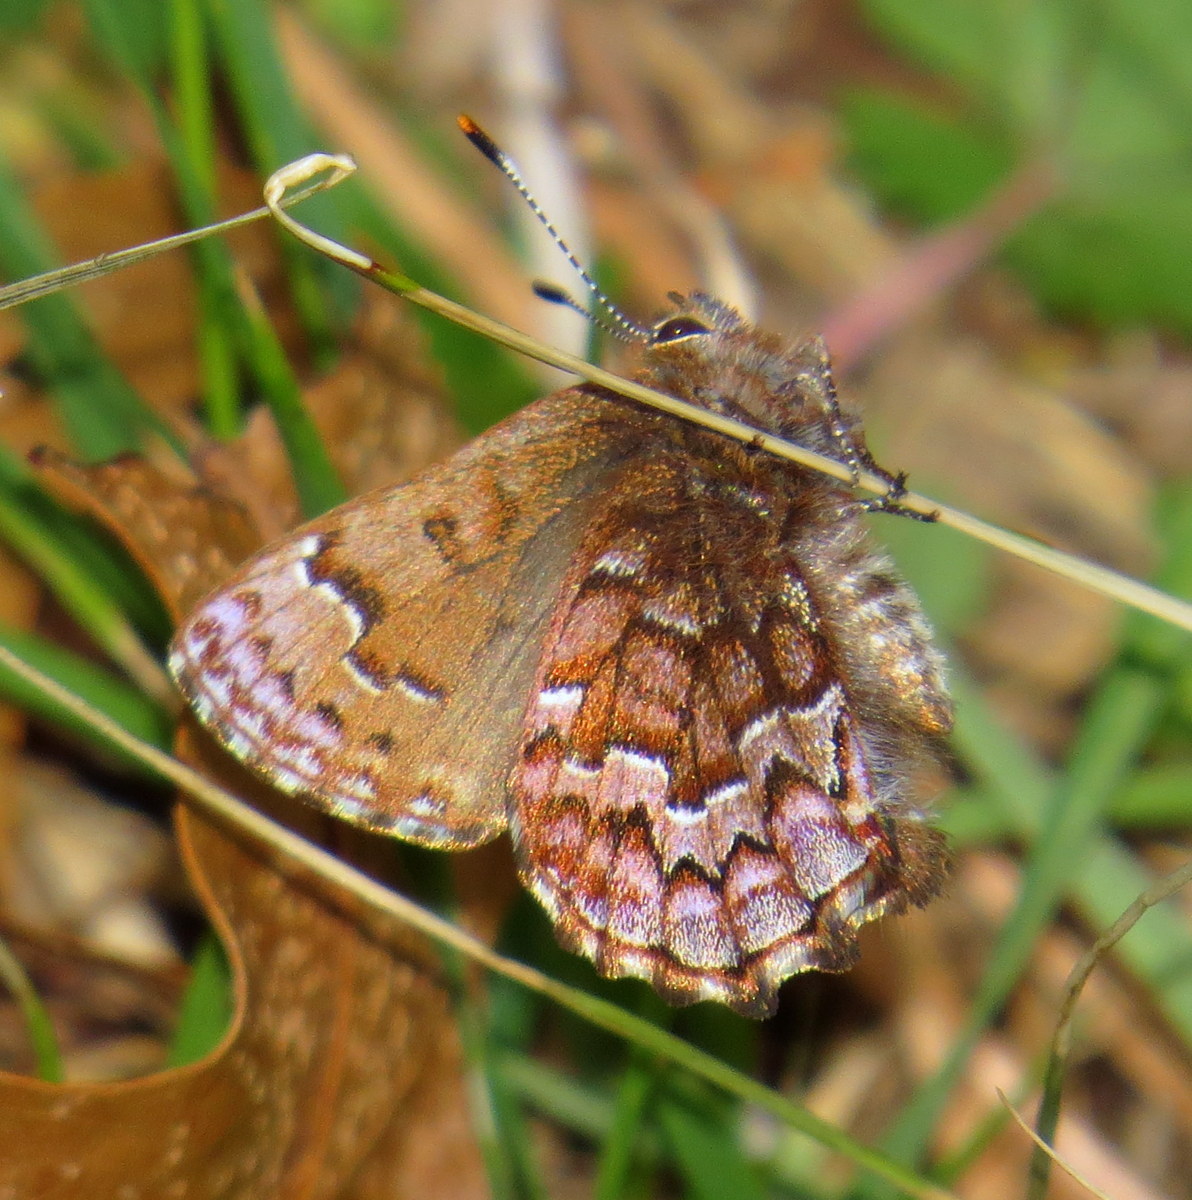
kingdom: Animalia
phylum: Arthropoda
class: Insecta
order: Lepidoptera
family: Lycaenidae
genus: Incisalia
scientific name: Incisalia niphon
